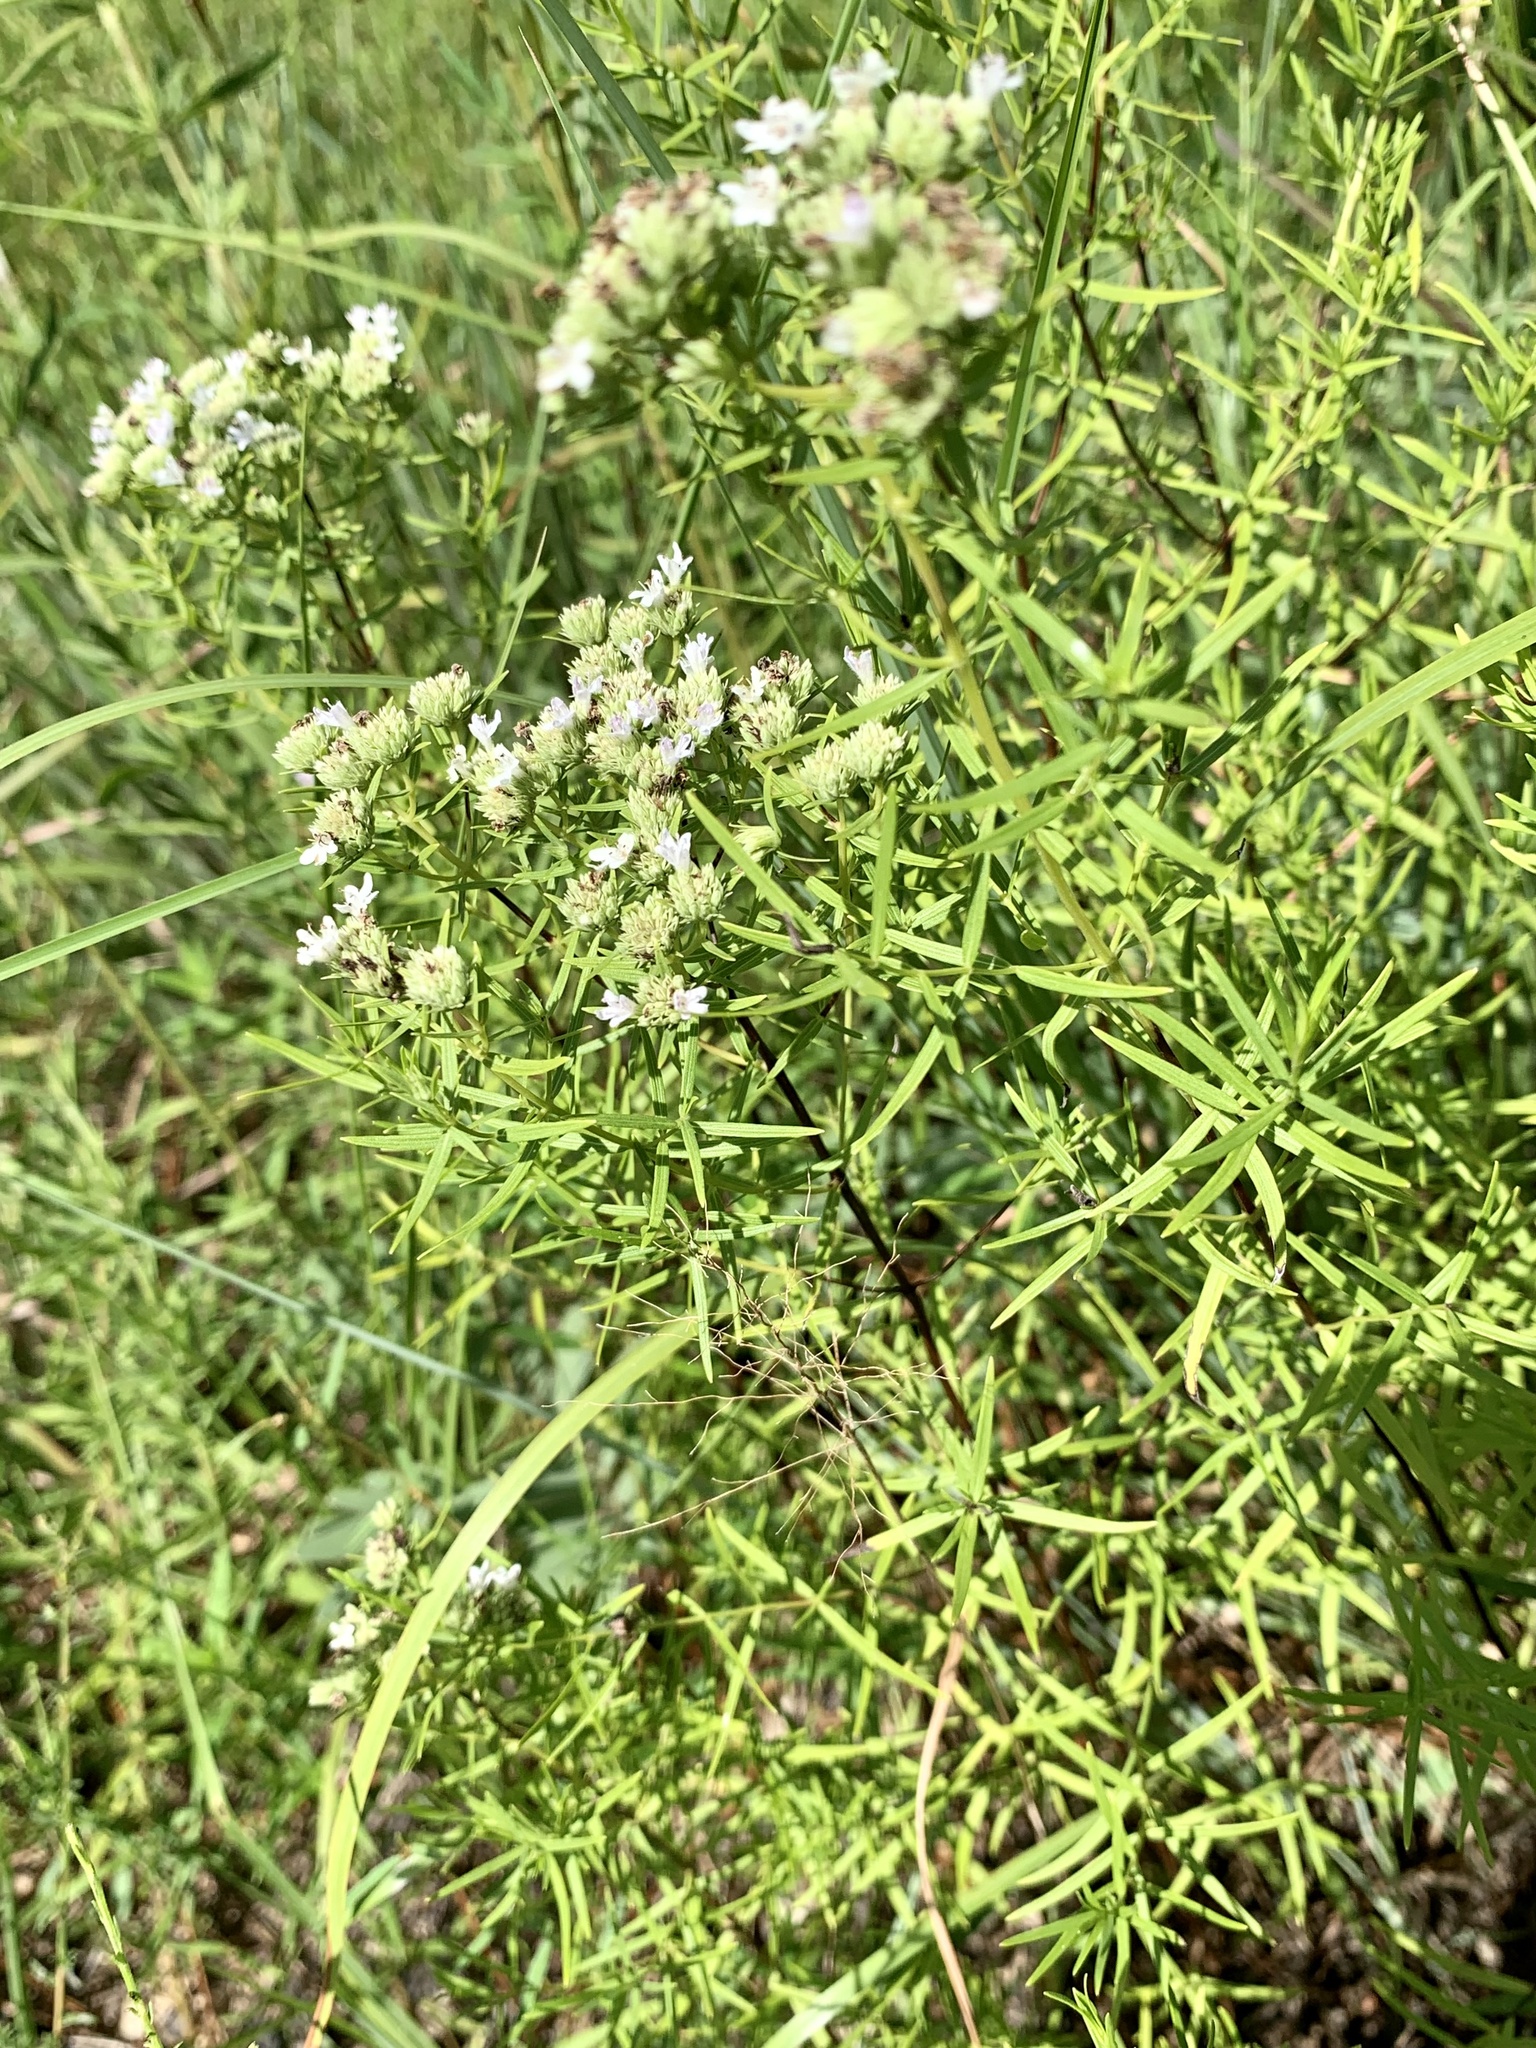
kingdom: Plantae
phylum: Tracheophyta
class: Magnoliopsida
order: Lamiales
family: Lamiaceae
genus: Pycnanthemum
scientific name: Pycnanthemum tenuifolium
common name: Narrow-leaf mountain-mint
